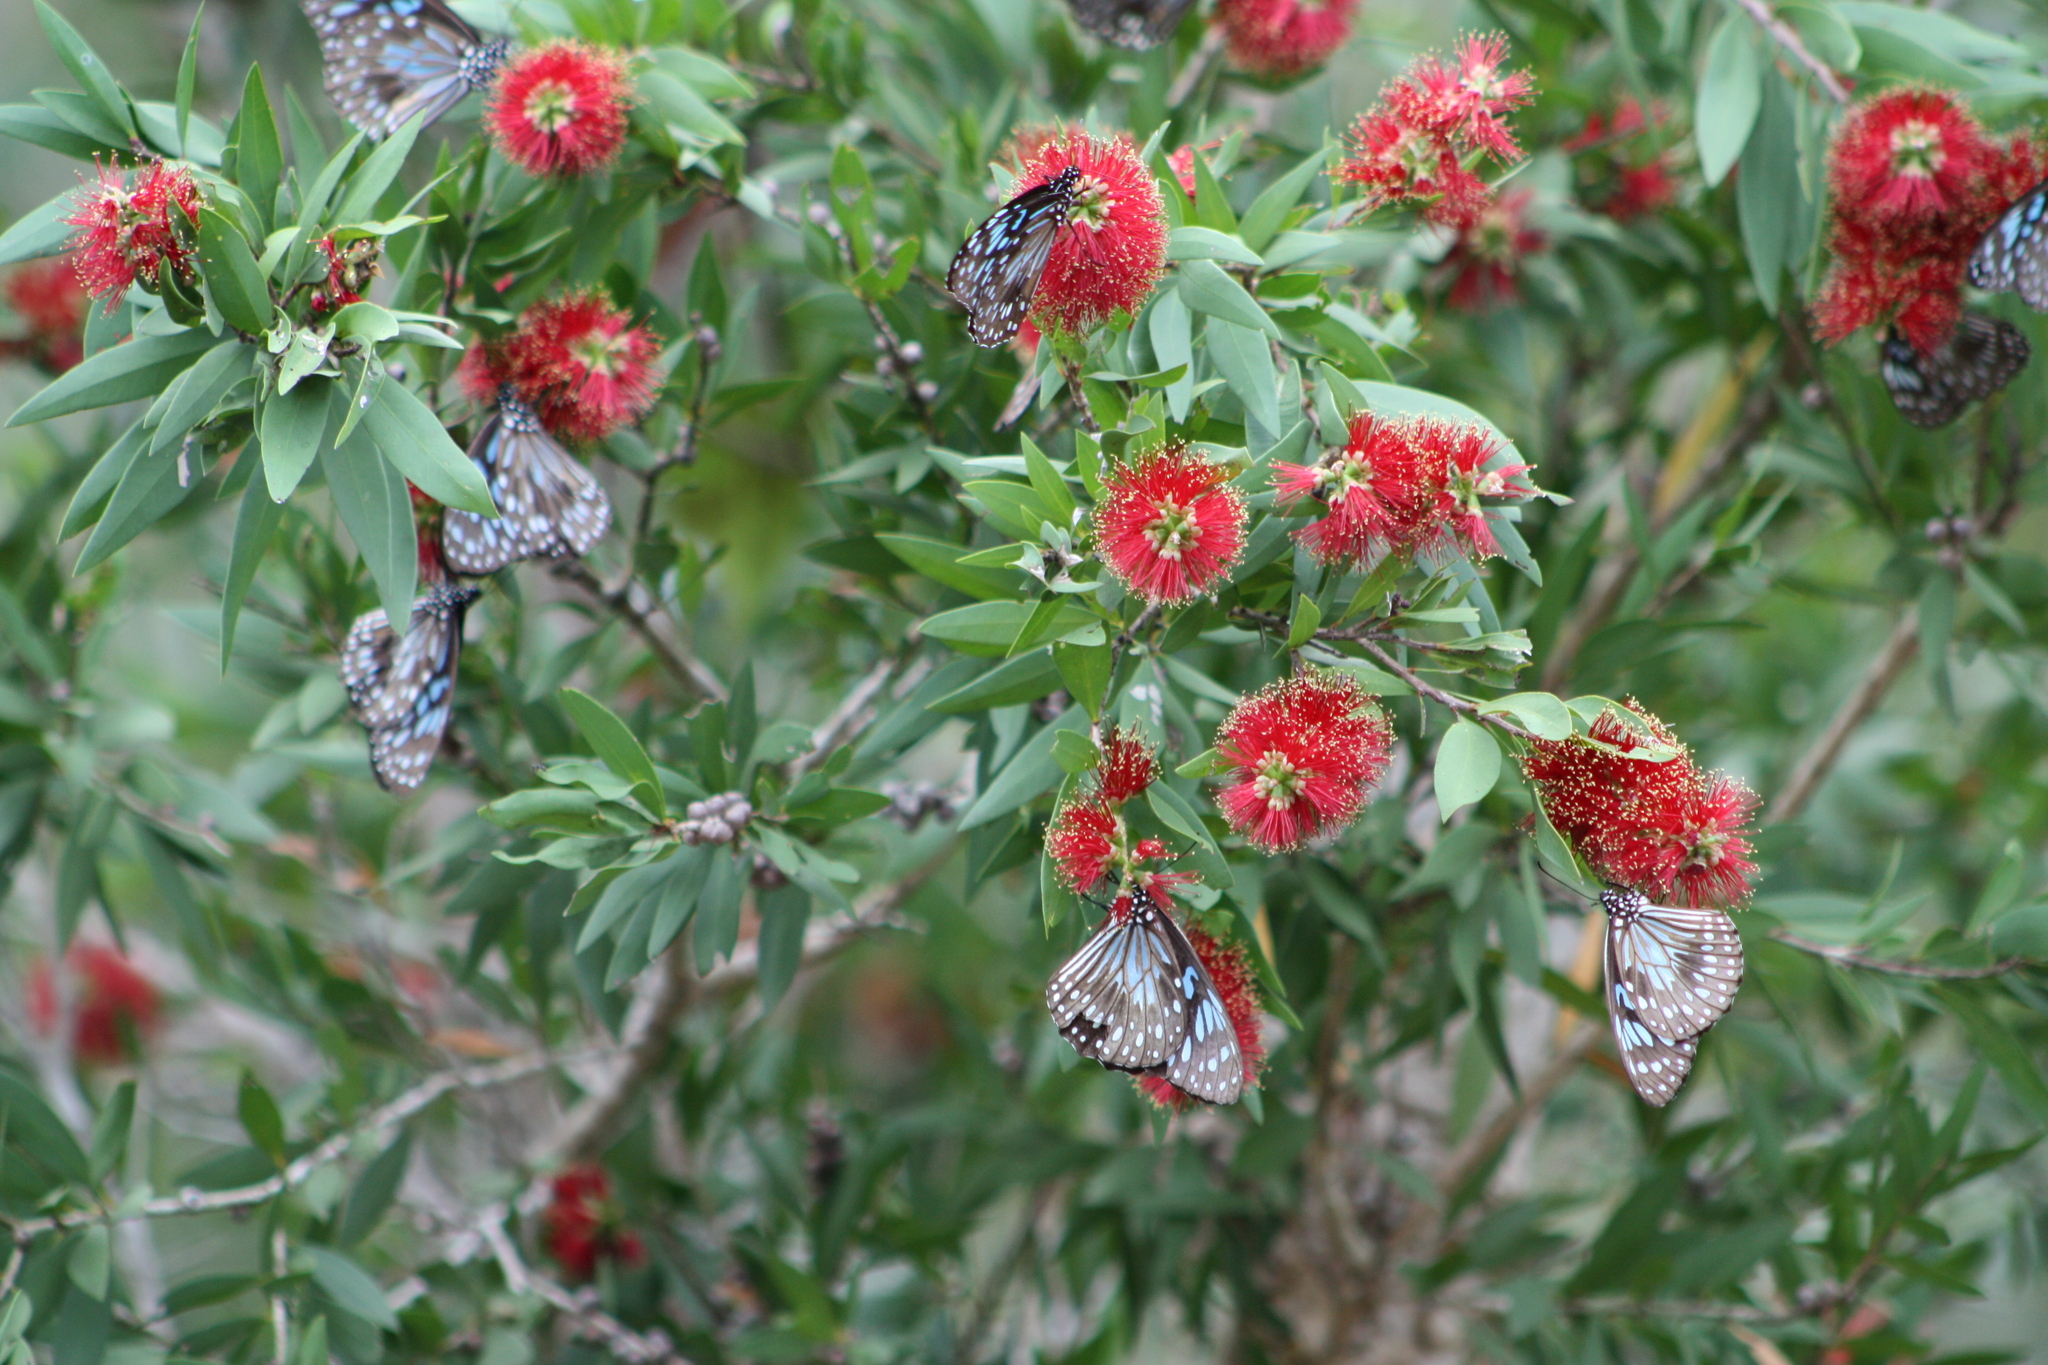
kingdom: Animalia
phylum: Arthropoda
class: Insecta
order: Lepidoptera
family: Nymphalidae
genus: Tirumala
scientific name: Tirumala hamata
